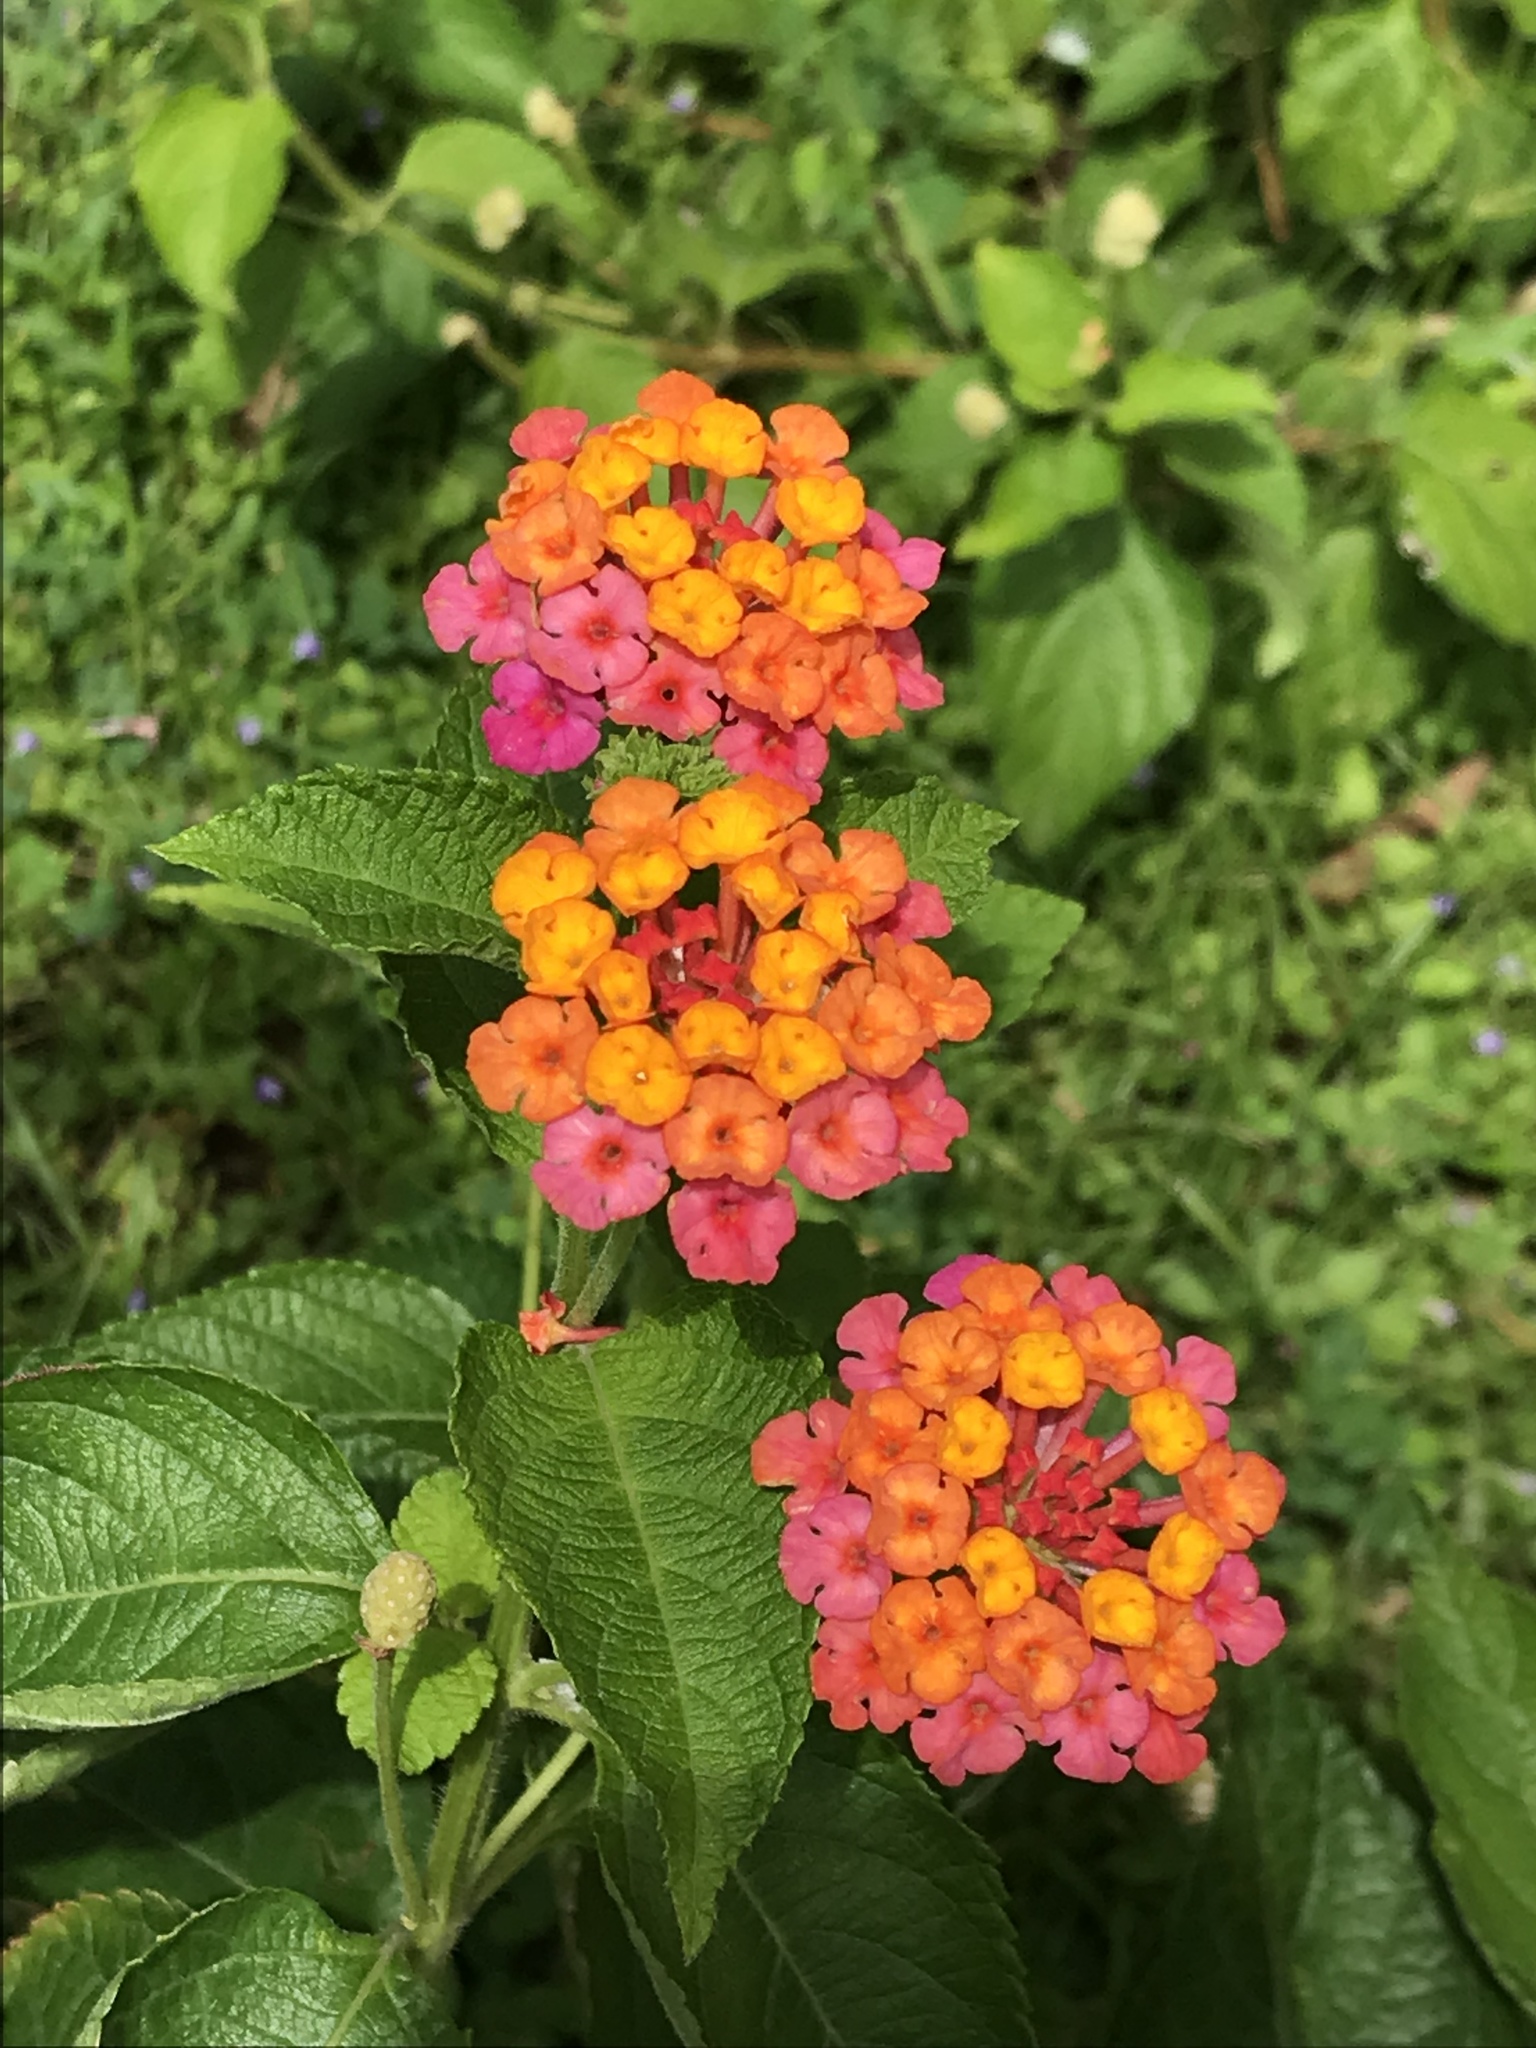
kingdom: Plantae
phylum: Tracheophyta
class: Magnoliopsida
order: Lamiales
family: Verbenaceae
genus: Lantana
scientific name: Lantana camara
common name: Lantana
